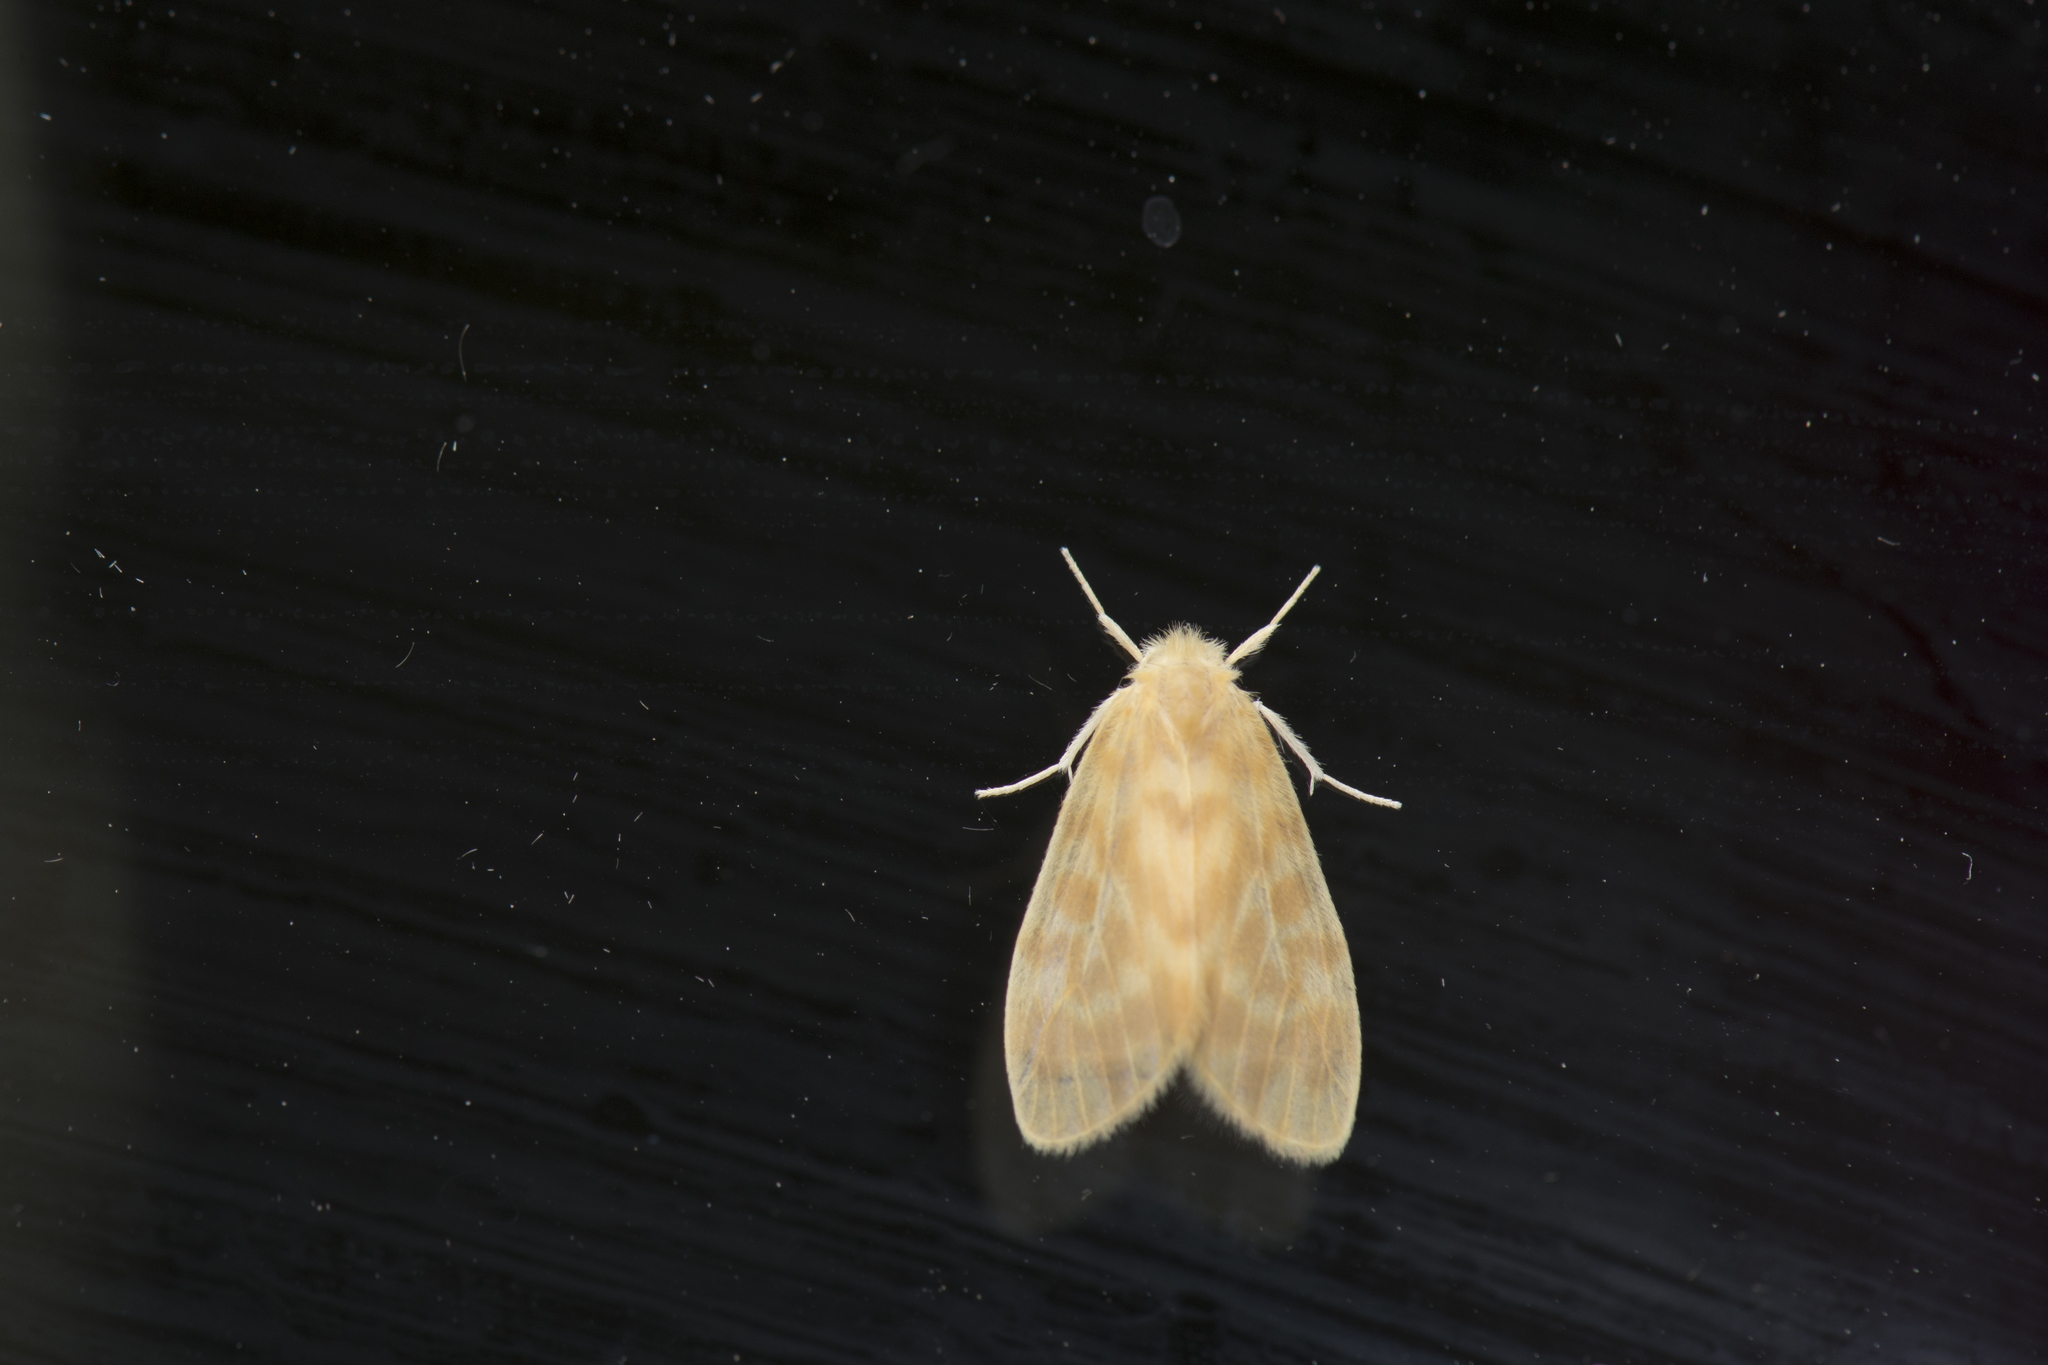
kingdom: Animalia
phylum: Arthropoda
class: Insecta
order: Lepidoptera
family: Erebidae
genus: Hemipsilia
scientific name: Hemipsilia coavestis
